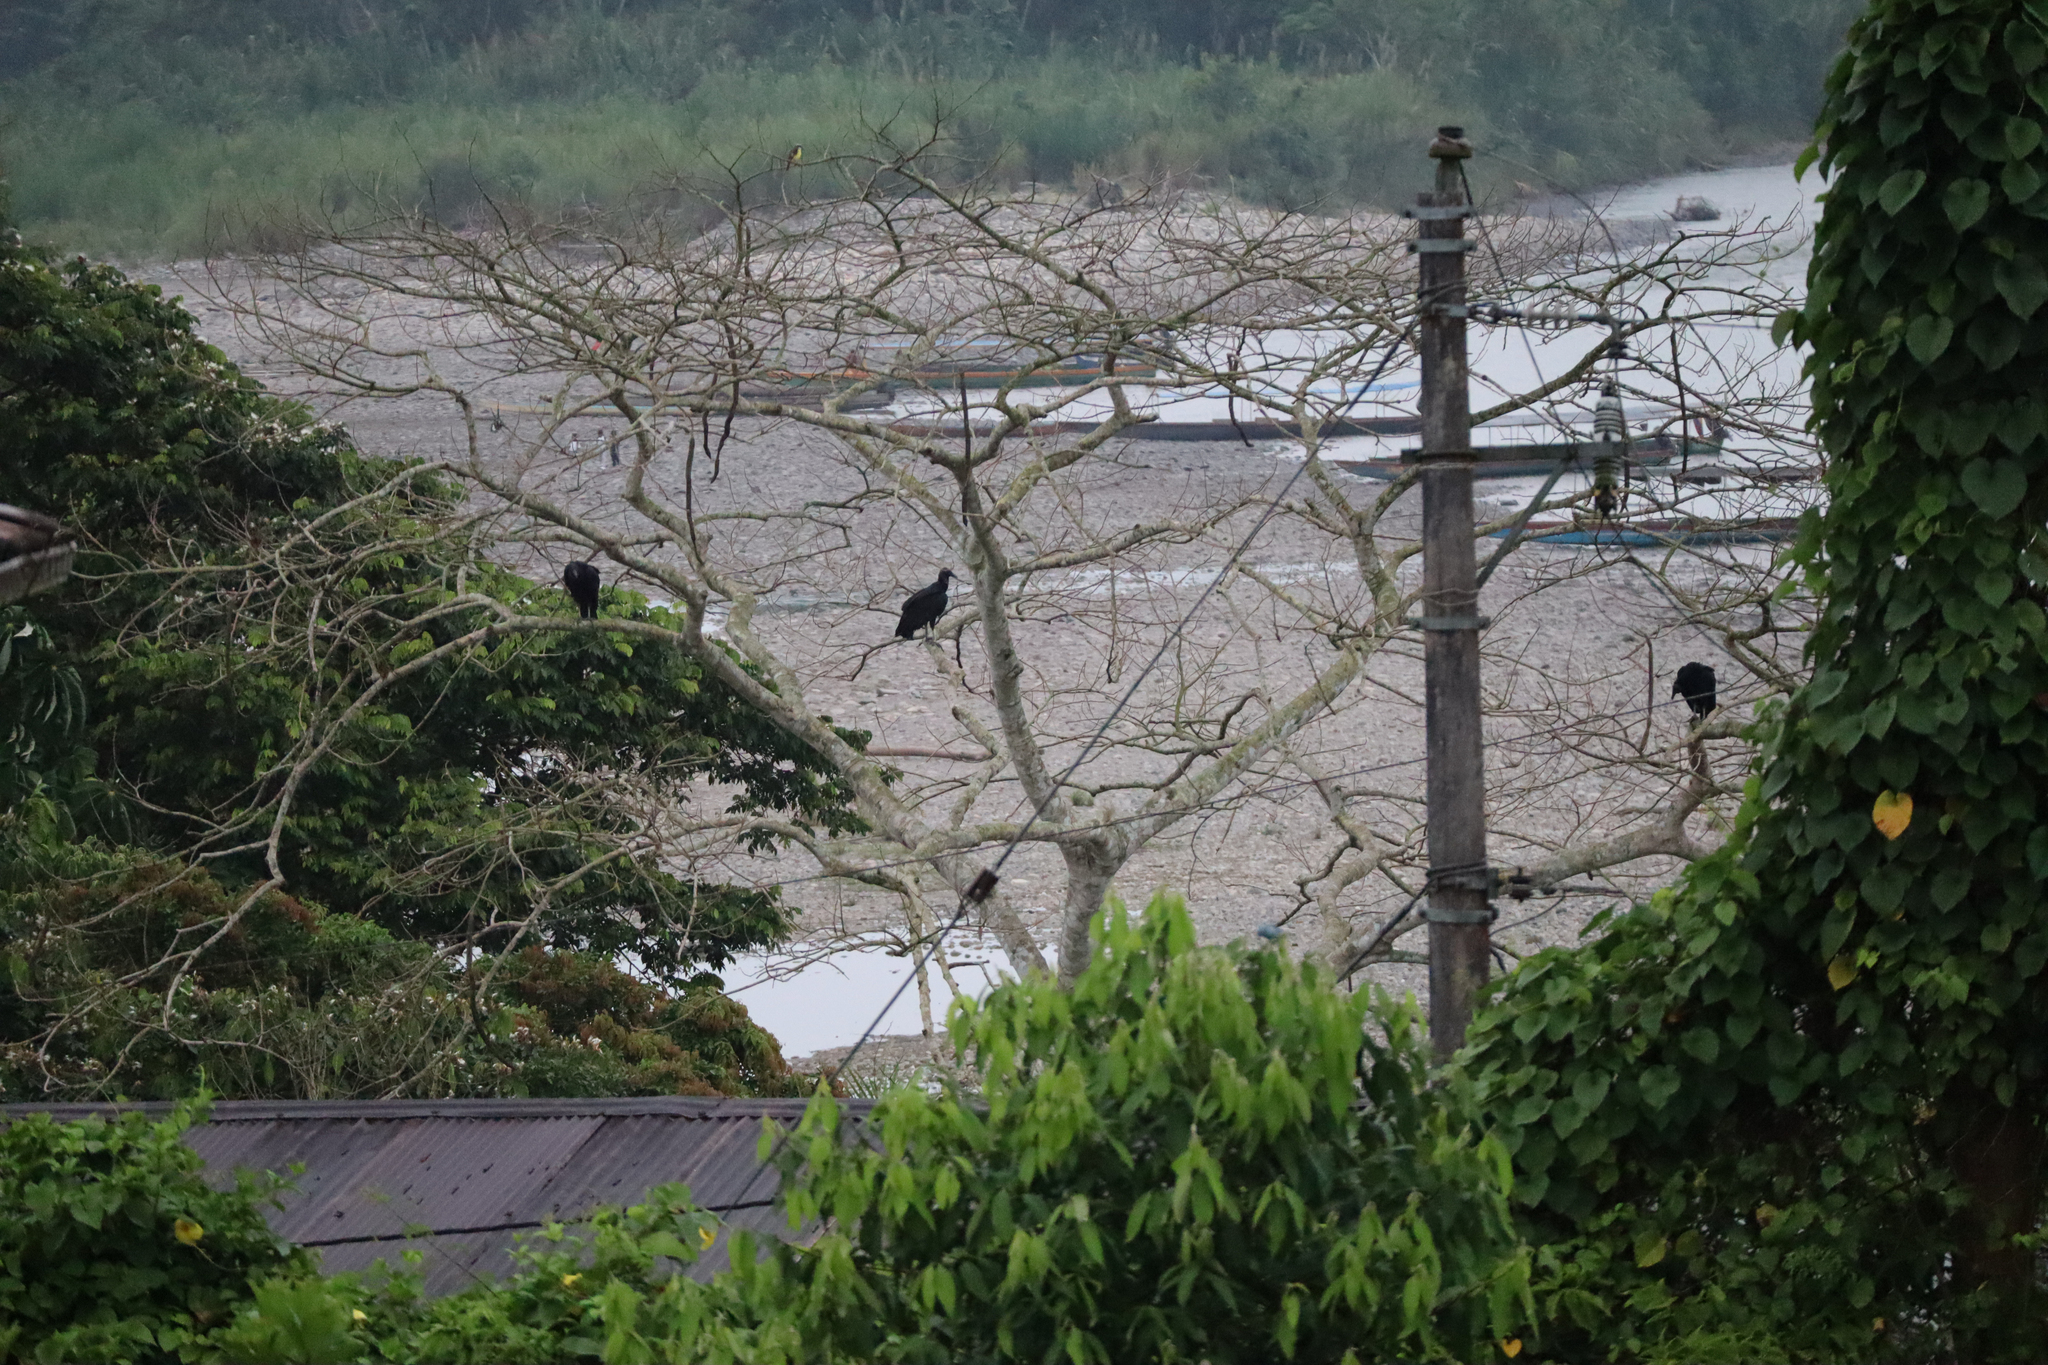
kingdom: Animalia
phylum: Chordata
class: Aves
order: Accipitriformes
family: Cathartidae
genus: Coragyps
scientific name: Coragyps atratus
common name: Black vulture
